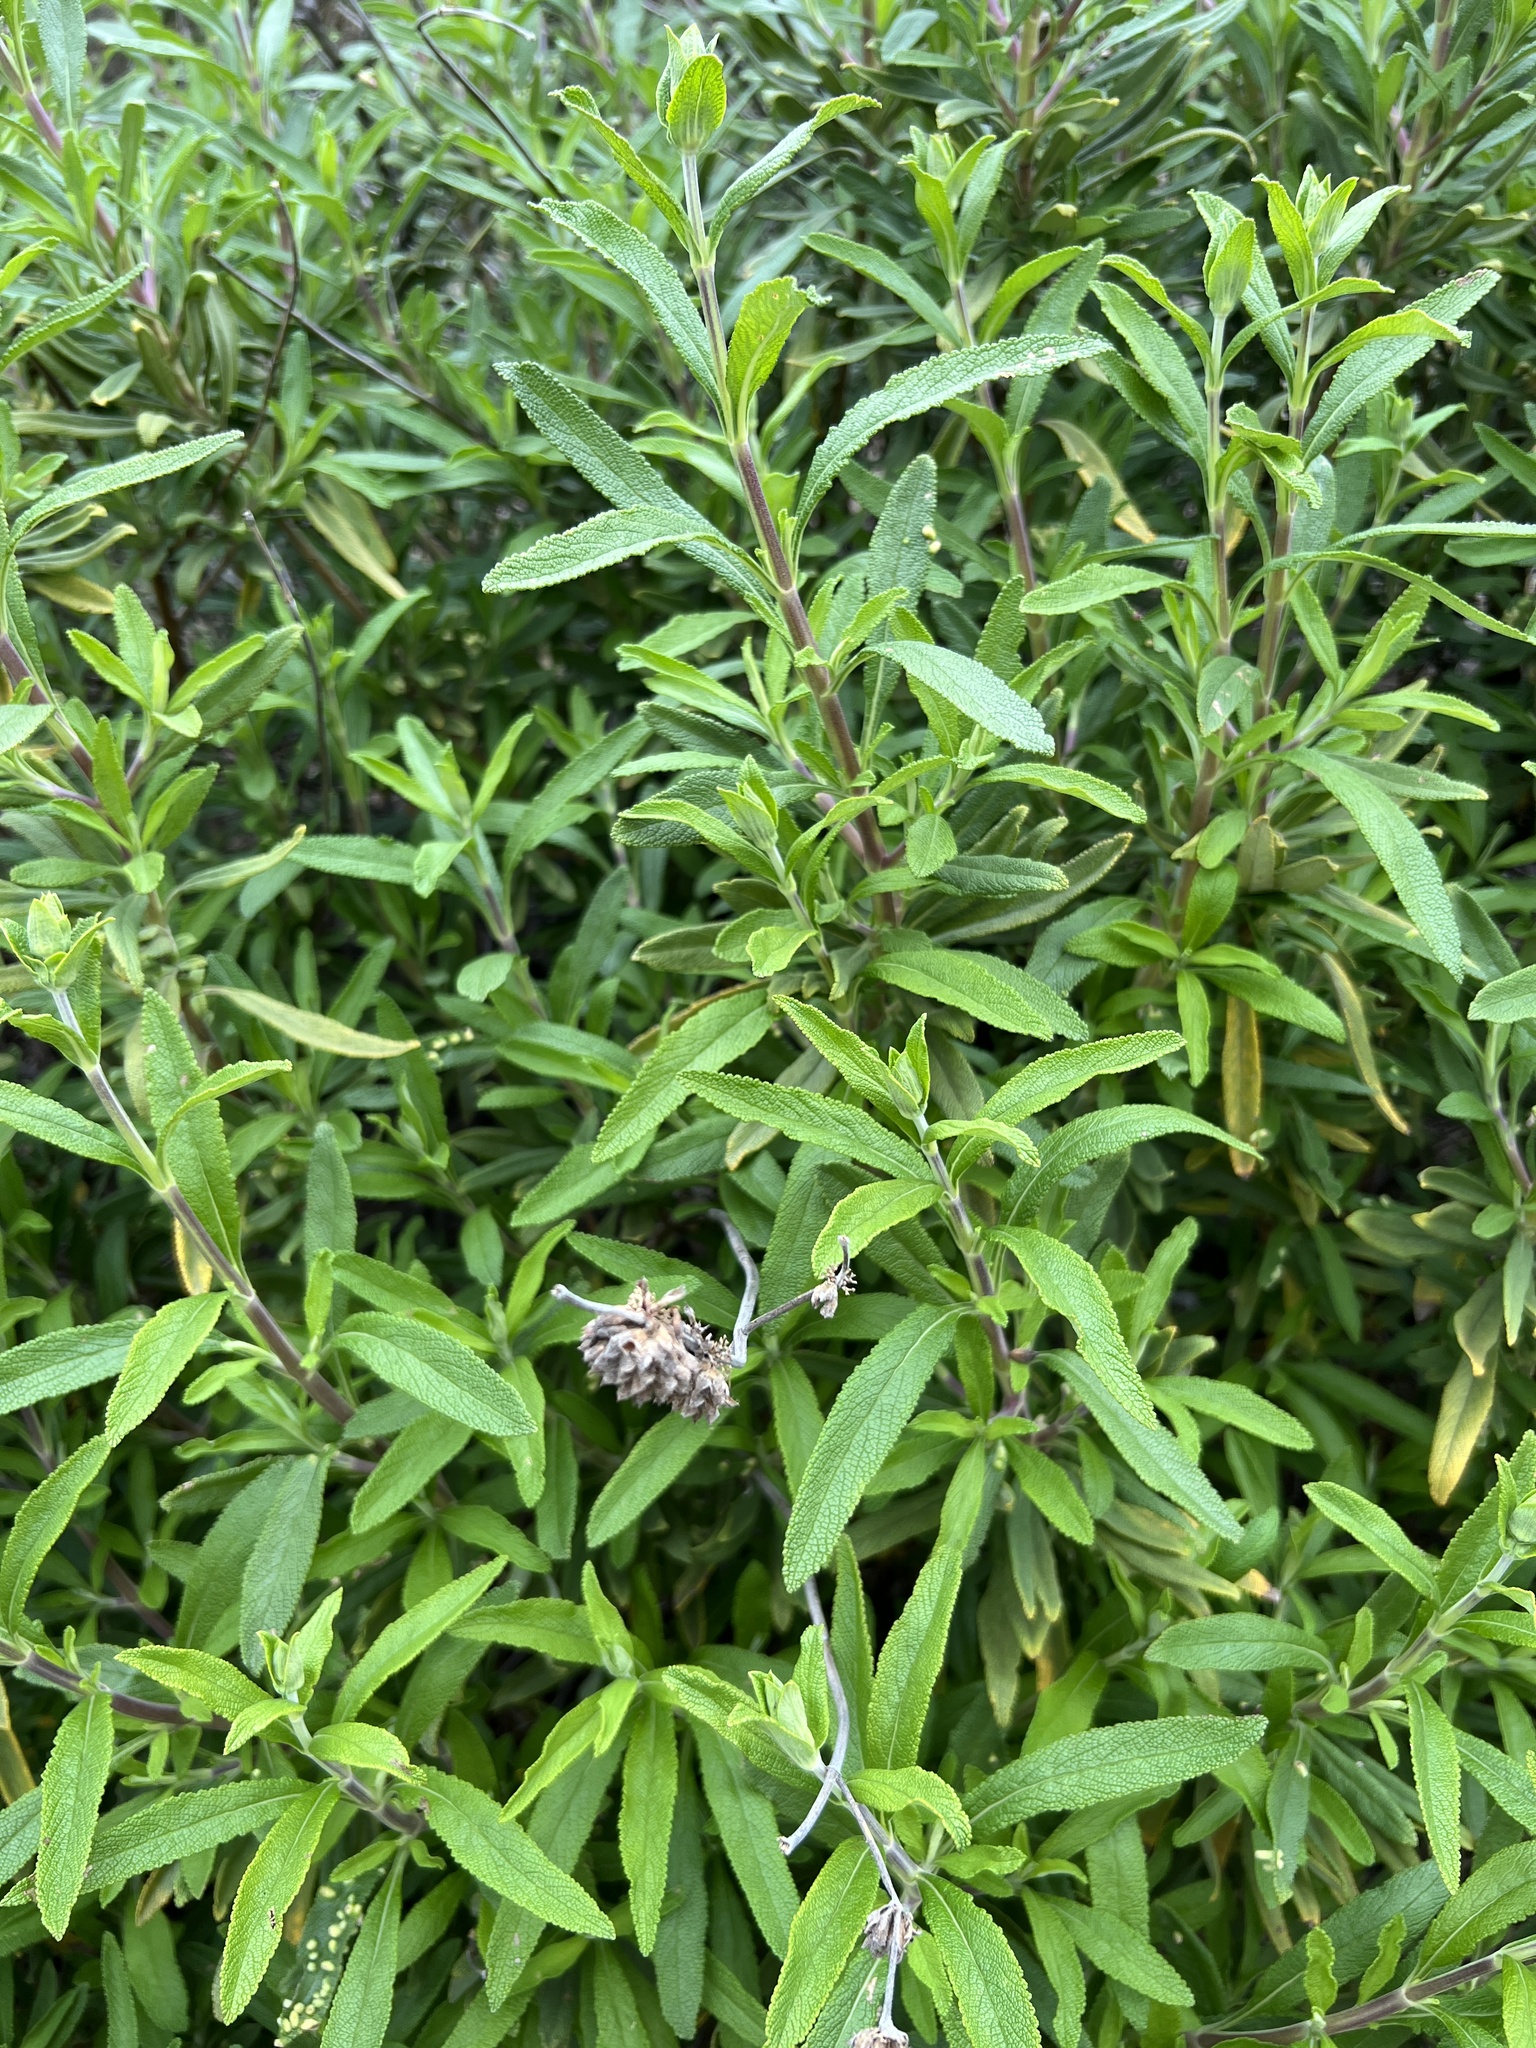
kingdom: Plantae
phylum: Tracheophyta
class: Magnoliopsida
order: Lamiales
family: Lamiaceae
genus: Salvia
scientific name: Salvia mellifera
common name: Black sage
